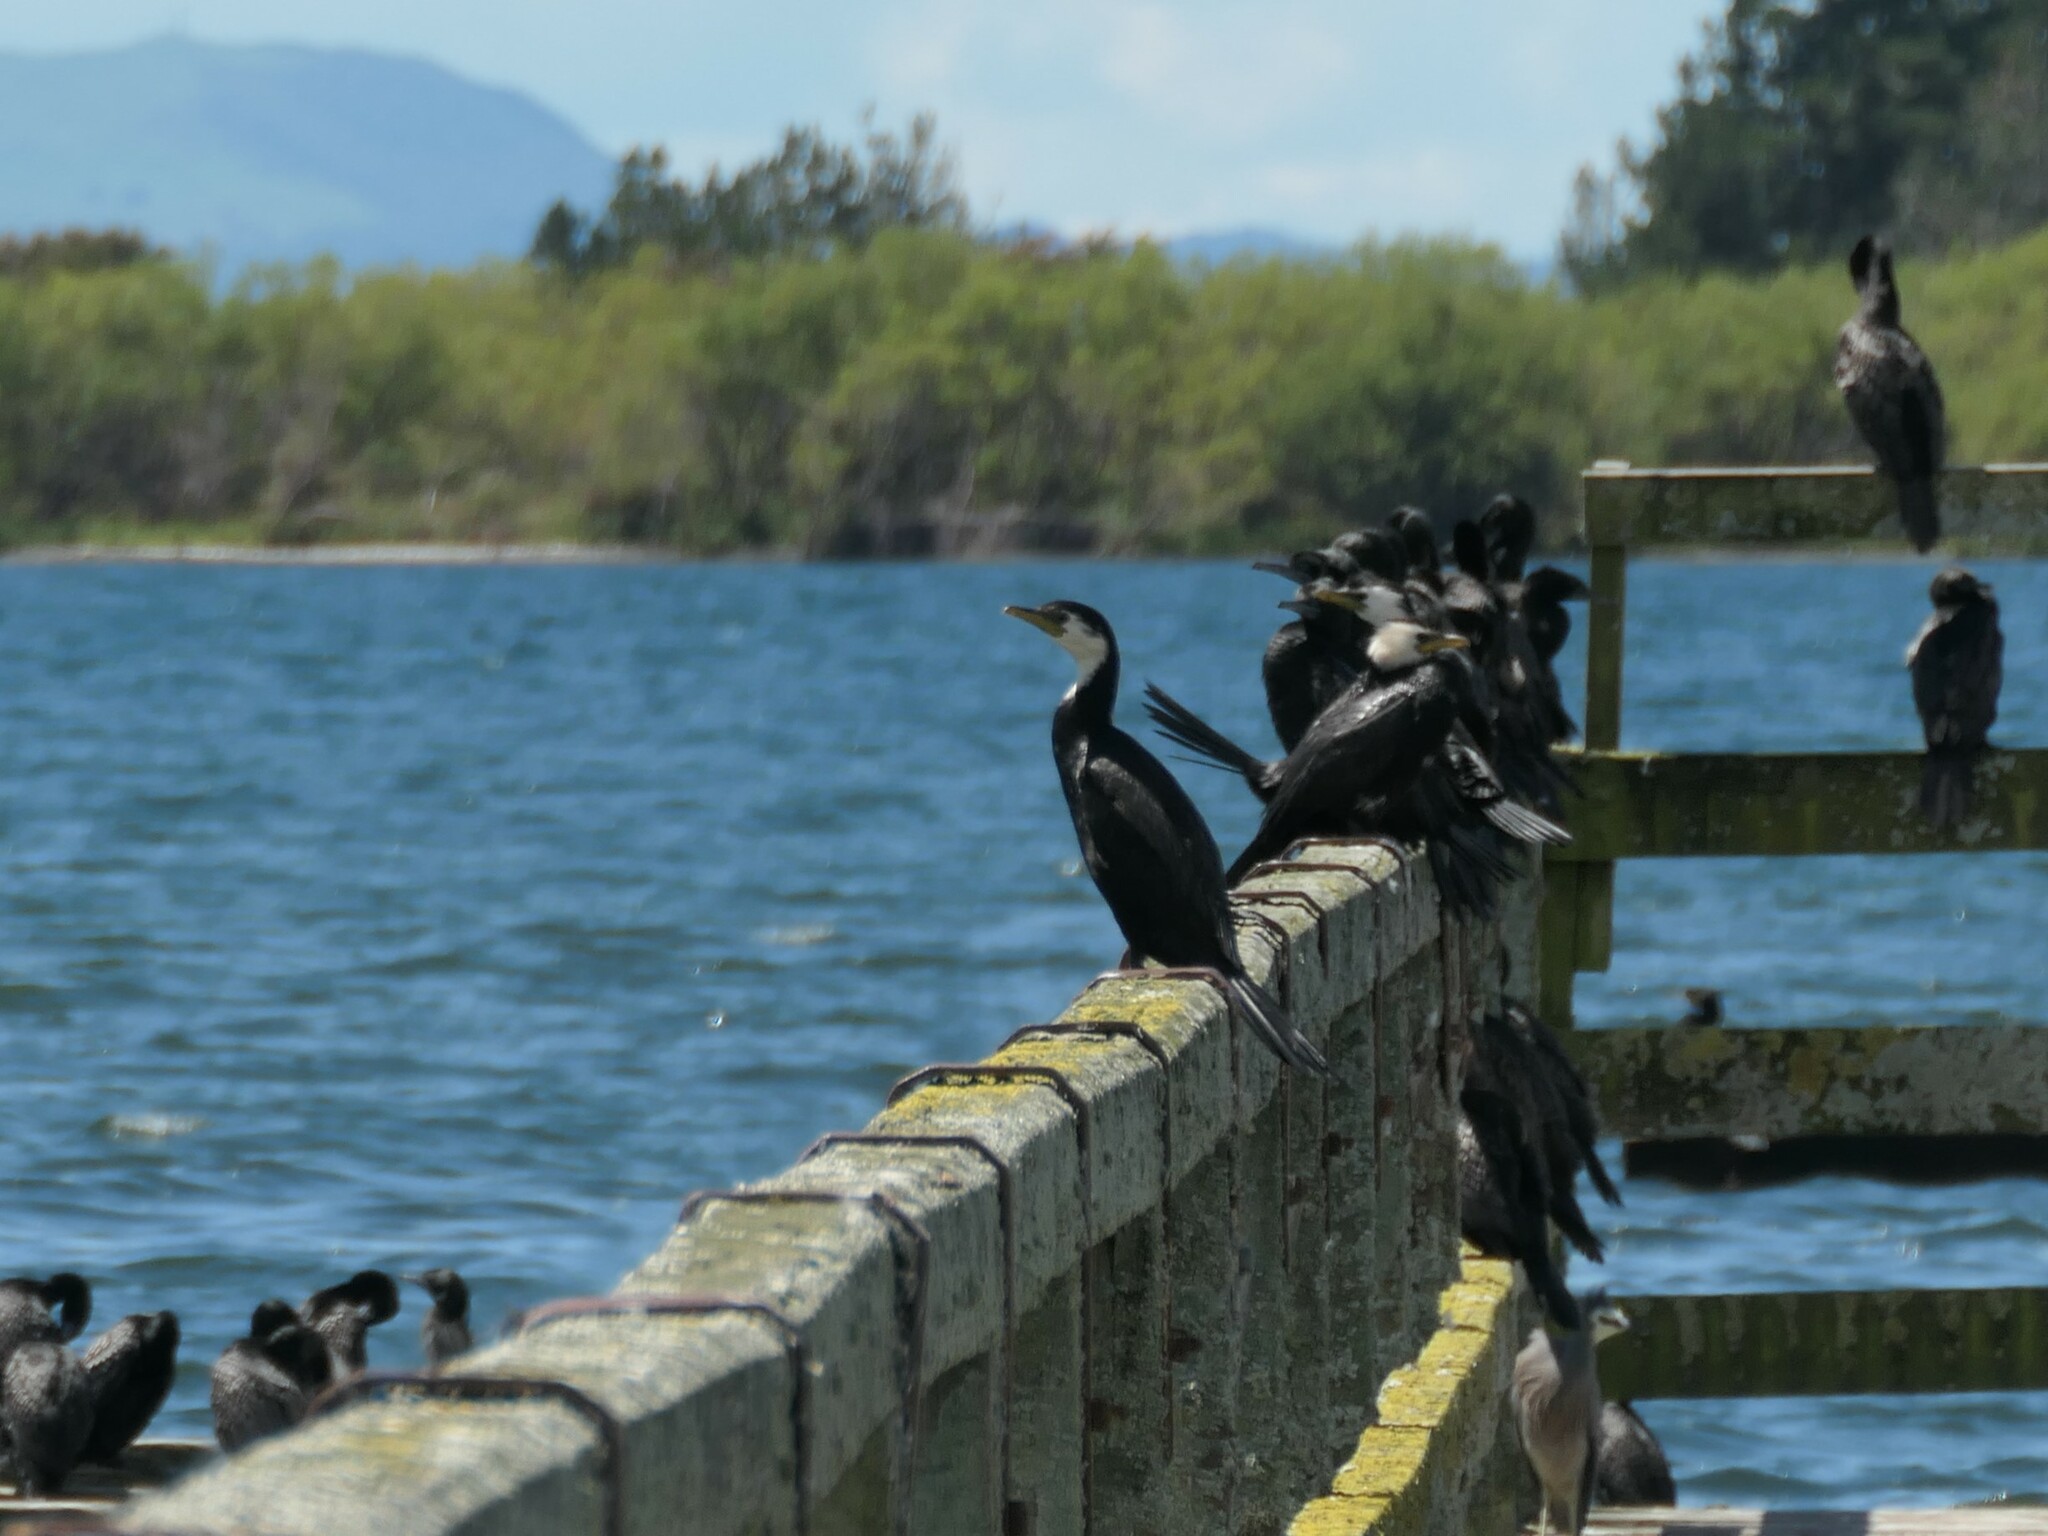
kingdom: Animalia
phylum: Chordata
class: Aves
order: Suliformes
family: Phalacrocoracidae
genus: Microcarbo
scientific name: Microcarbo melanoleucos
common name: Little pied cormorant
